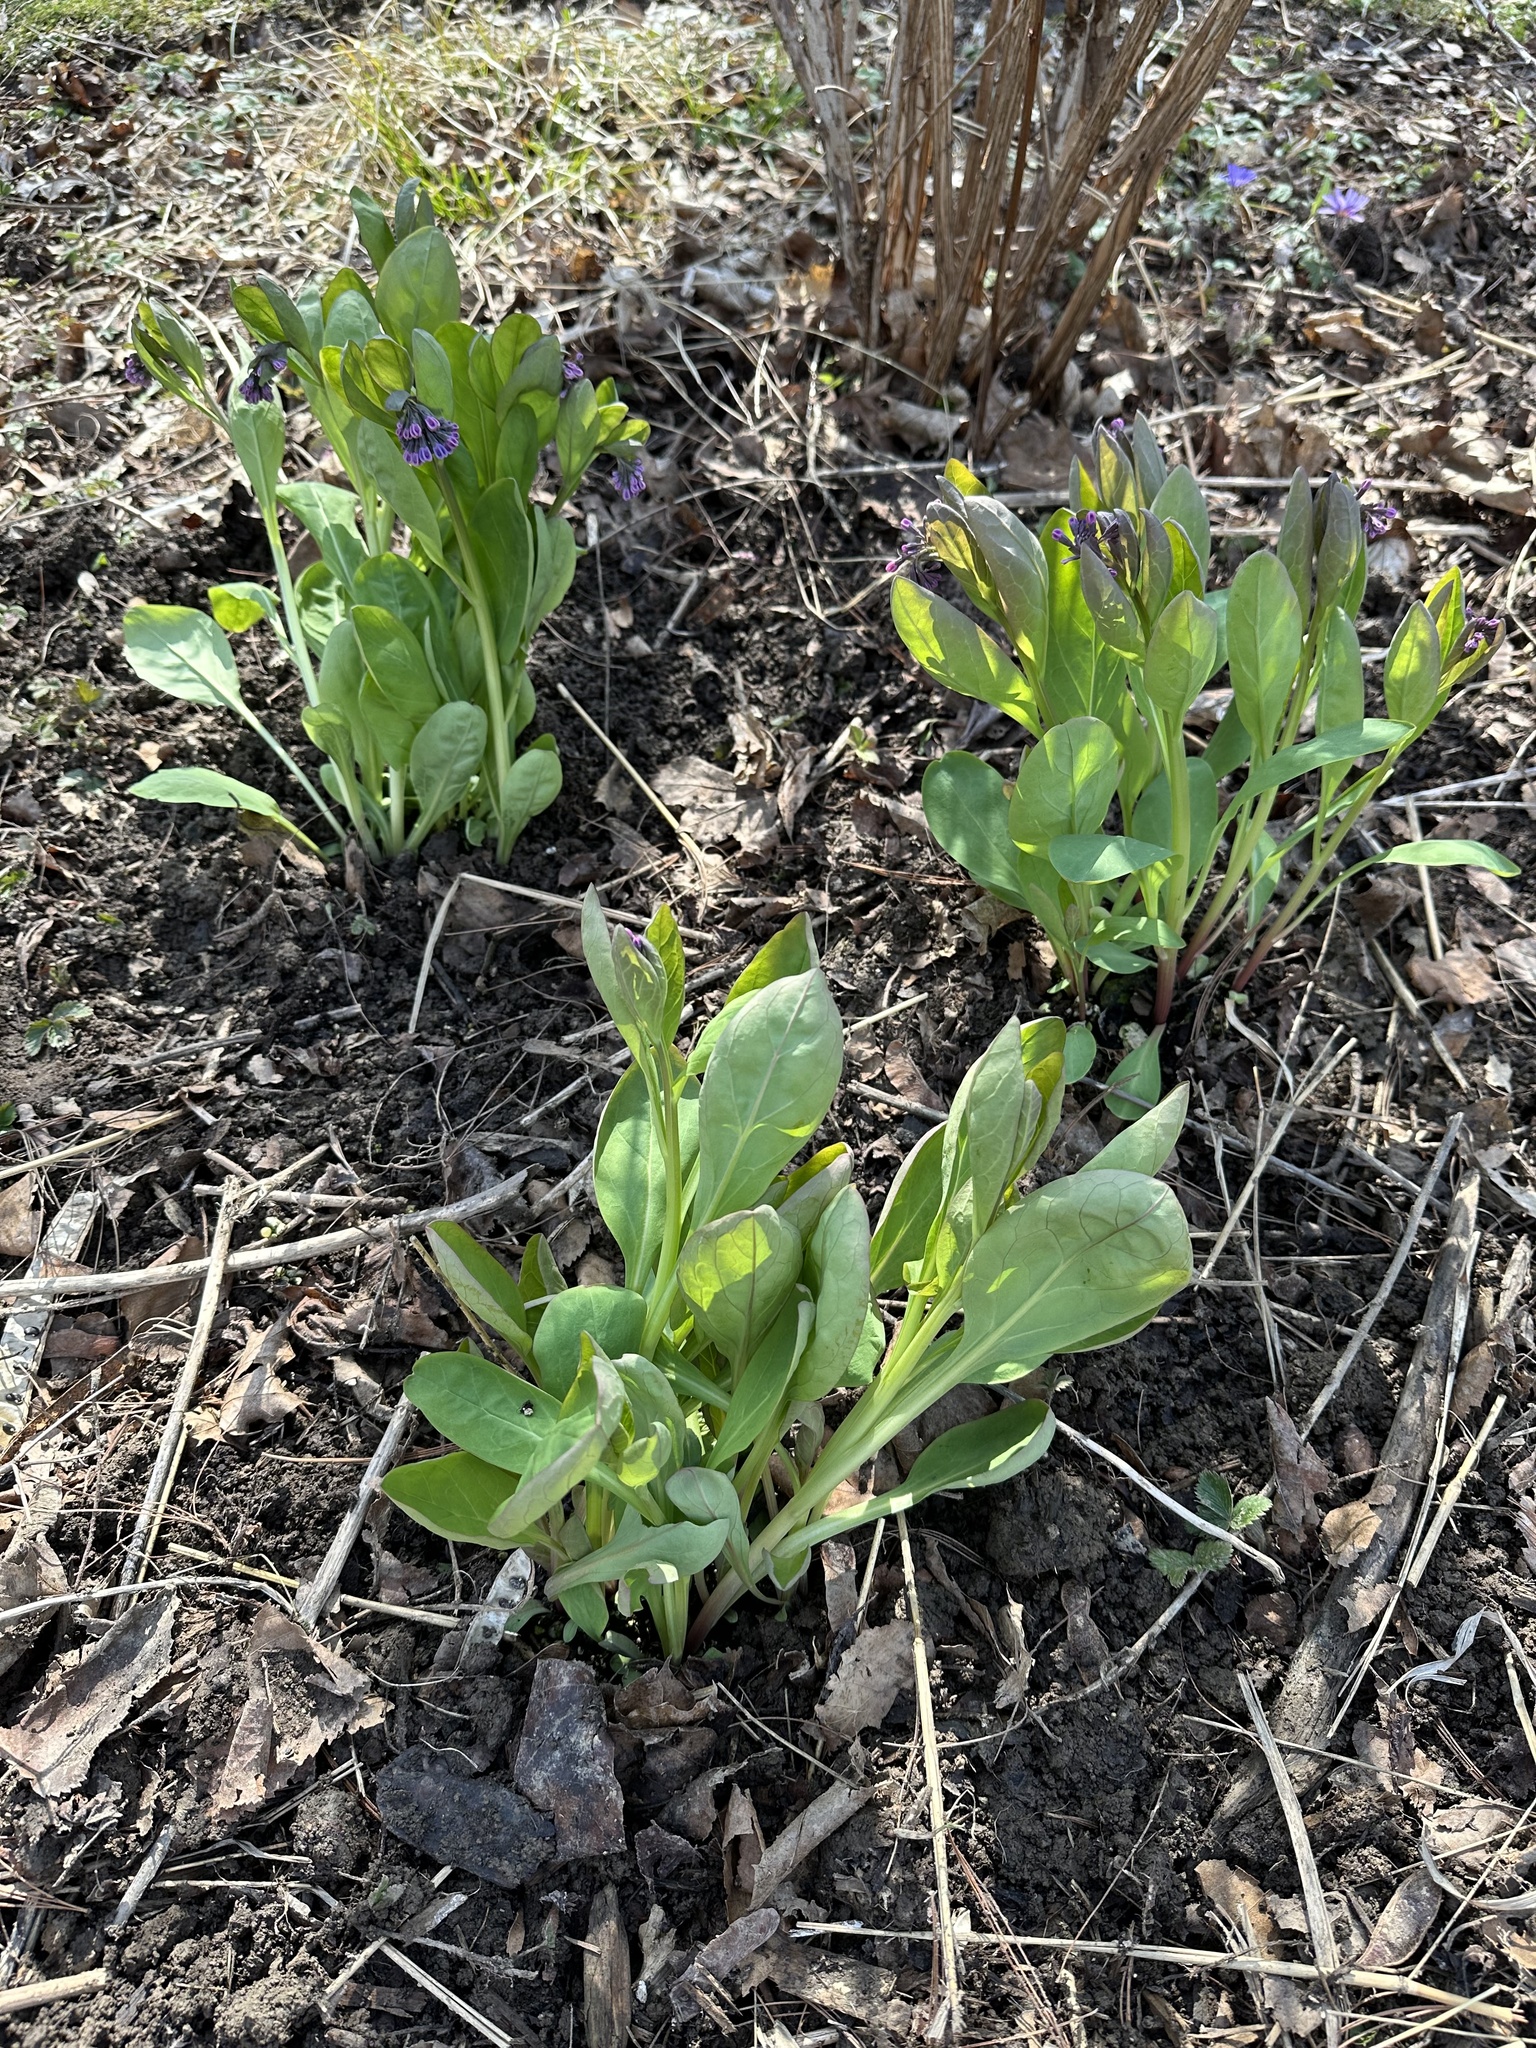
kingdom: Plantae
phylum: Tracheophyta
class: Magnoliopsida
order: Boraginales
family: Boraginaceae
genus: Mertensia
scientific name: Mertensia virginica
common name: Virginia bluebells
